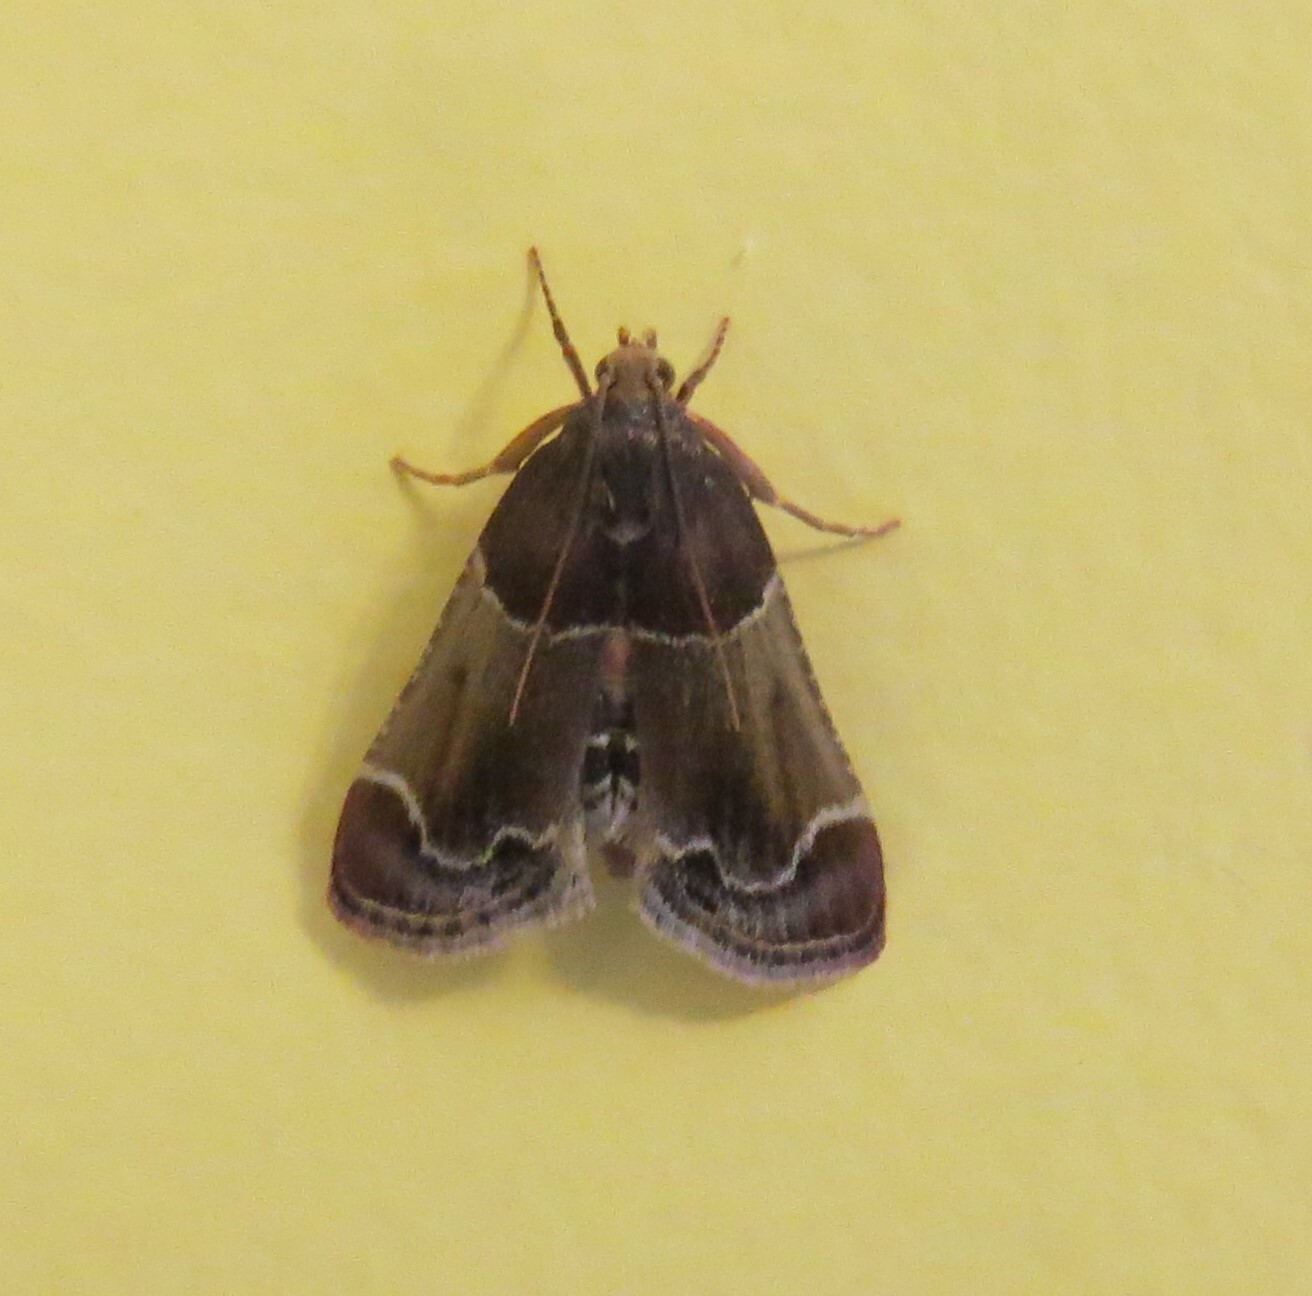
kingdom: Animalia
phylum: Arthropoda
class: Insecta
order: Lepidoptera
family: Pyralidae
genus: Pyralis
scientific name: Pyralis farinalis
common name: Meal moth
